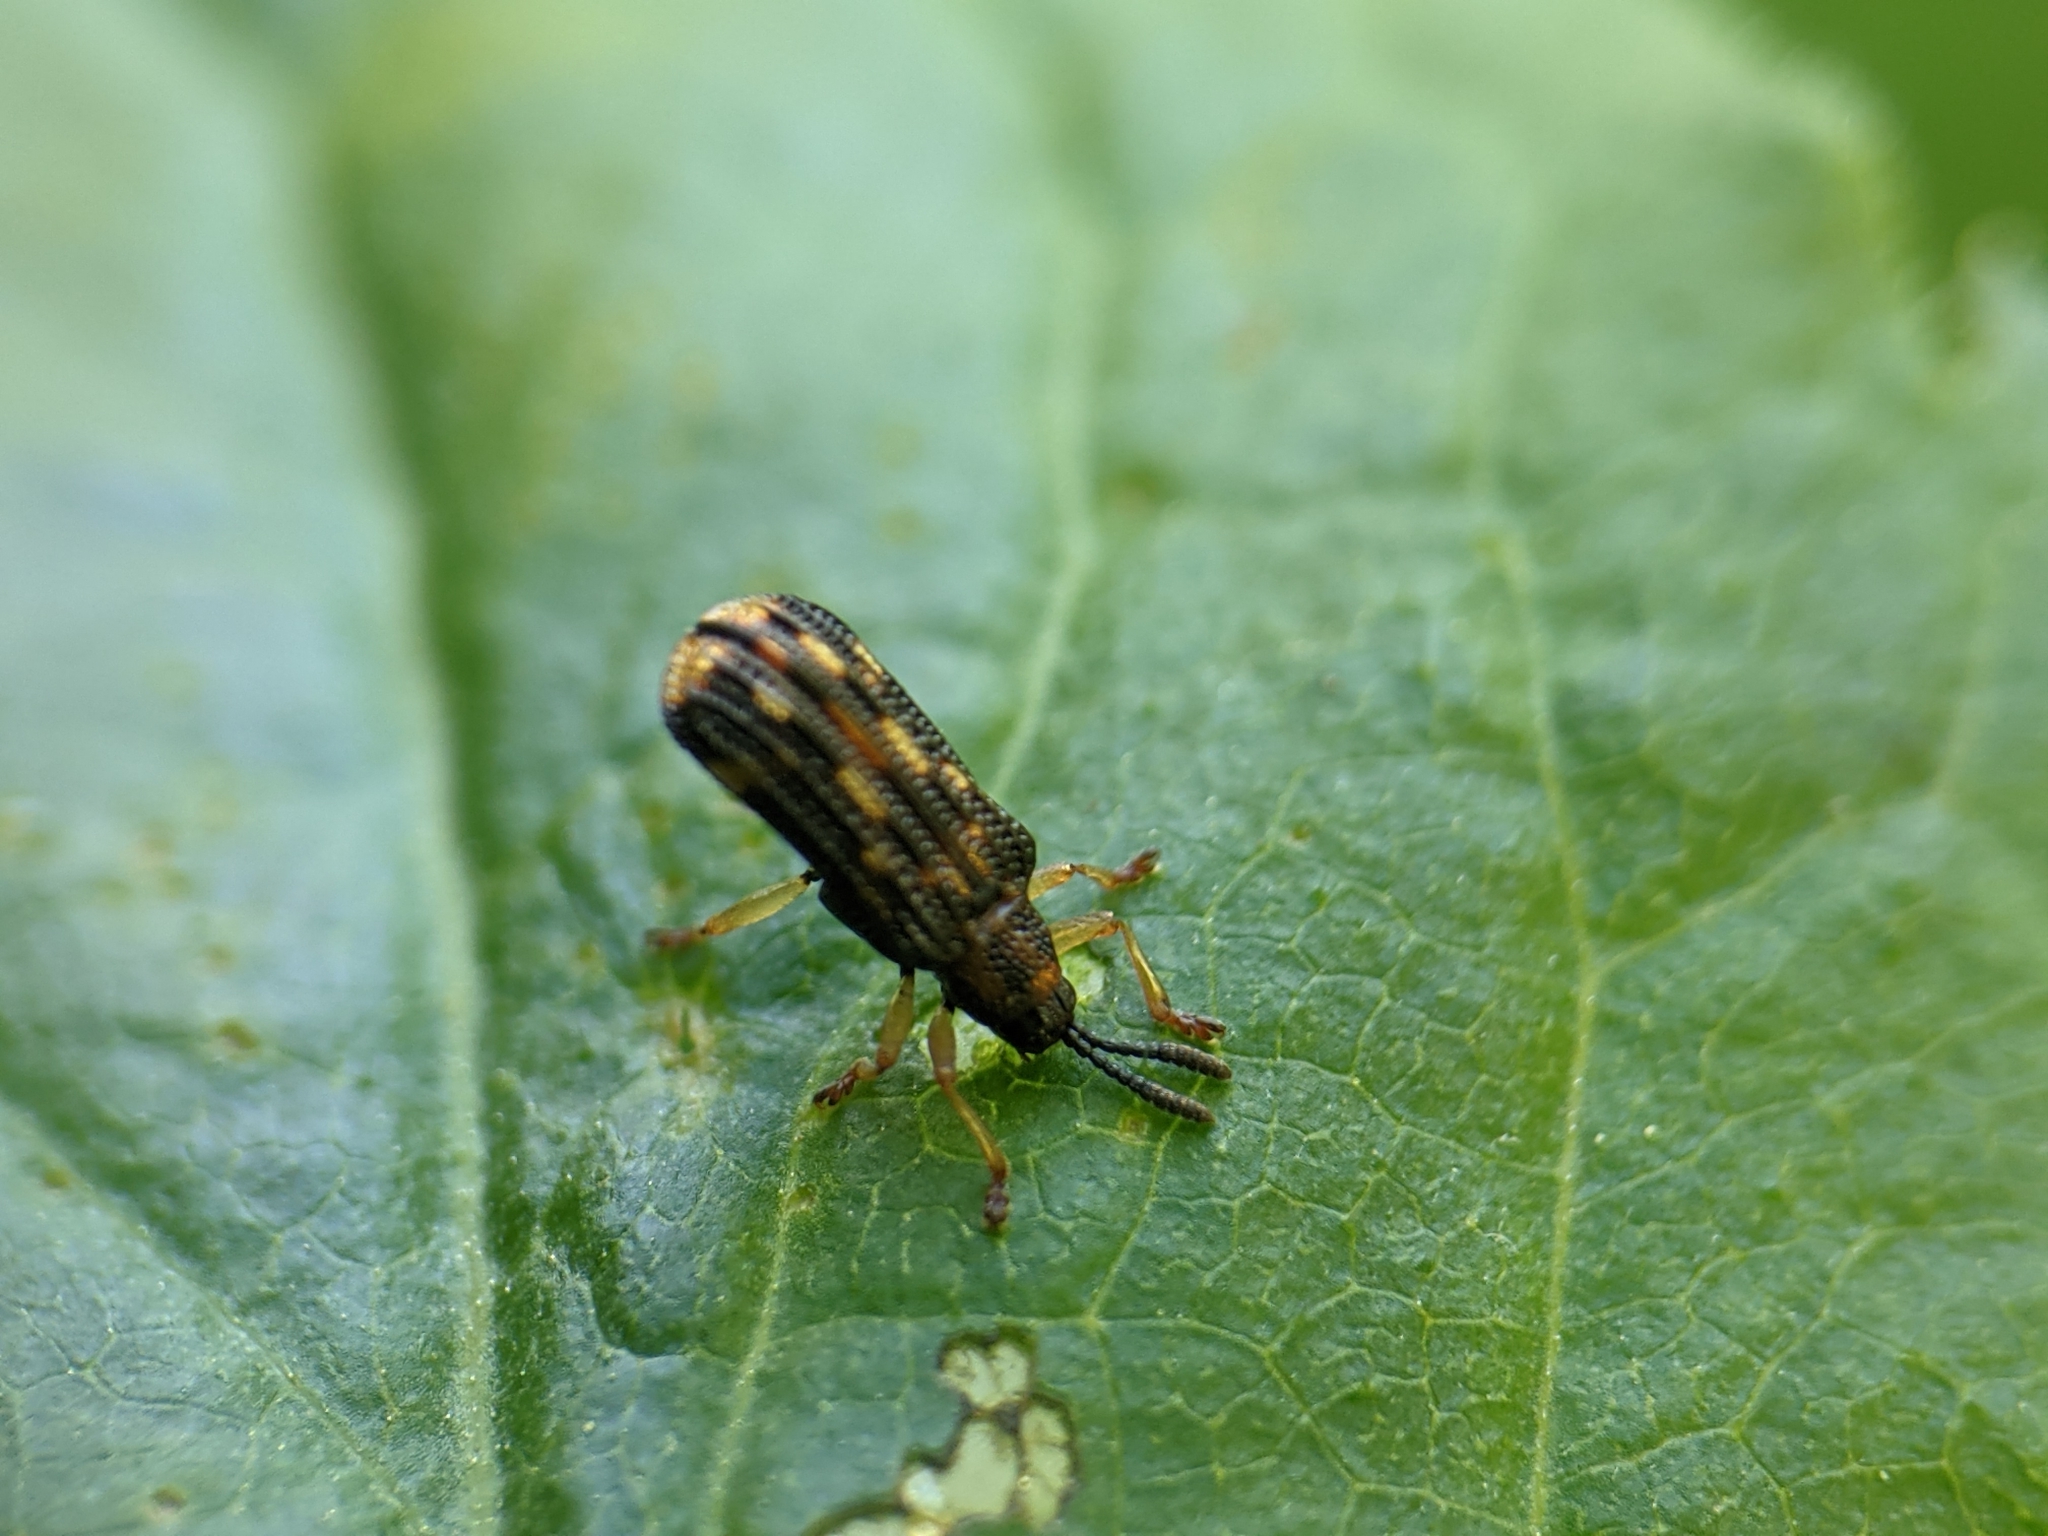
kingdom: Animalia
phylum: Arthropoda
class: Insecta
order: Coleoptera
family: Chrysomelidae
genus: Sumitrosis
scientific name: Sumitrosis inaequalis
